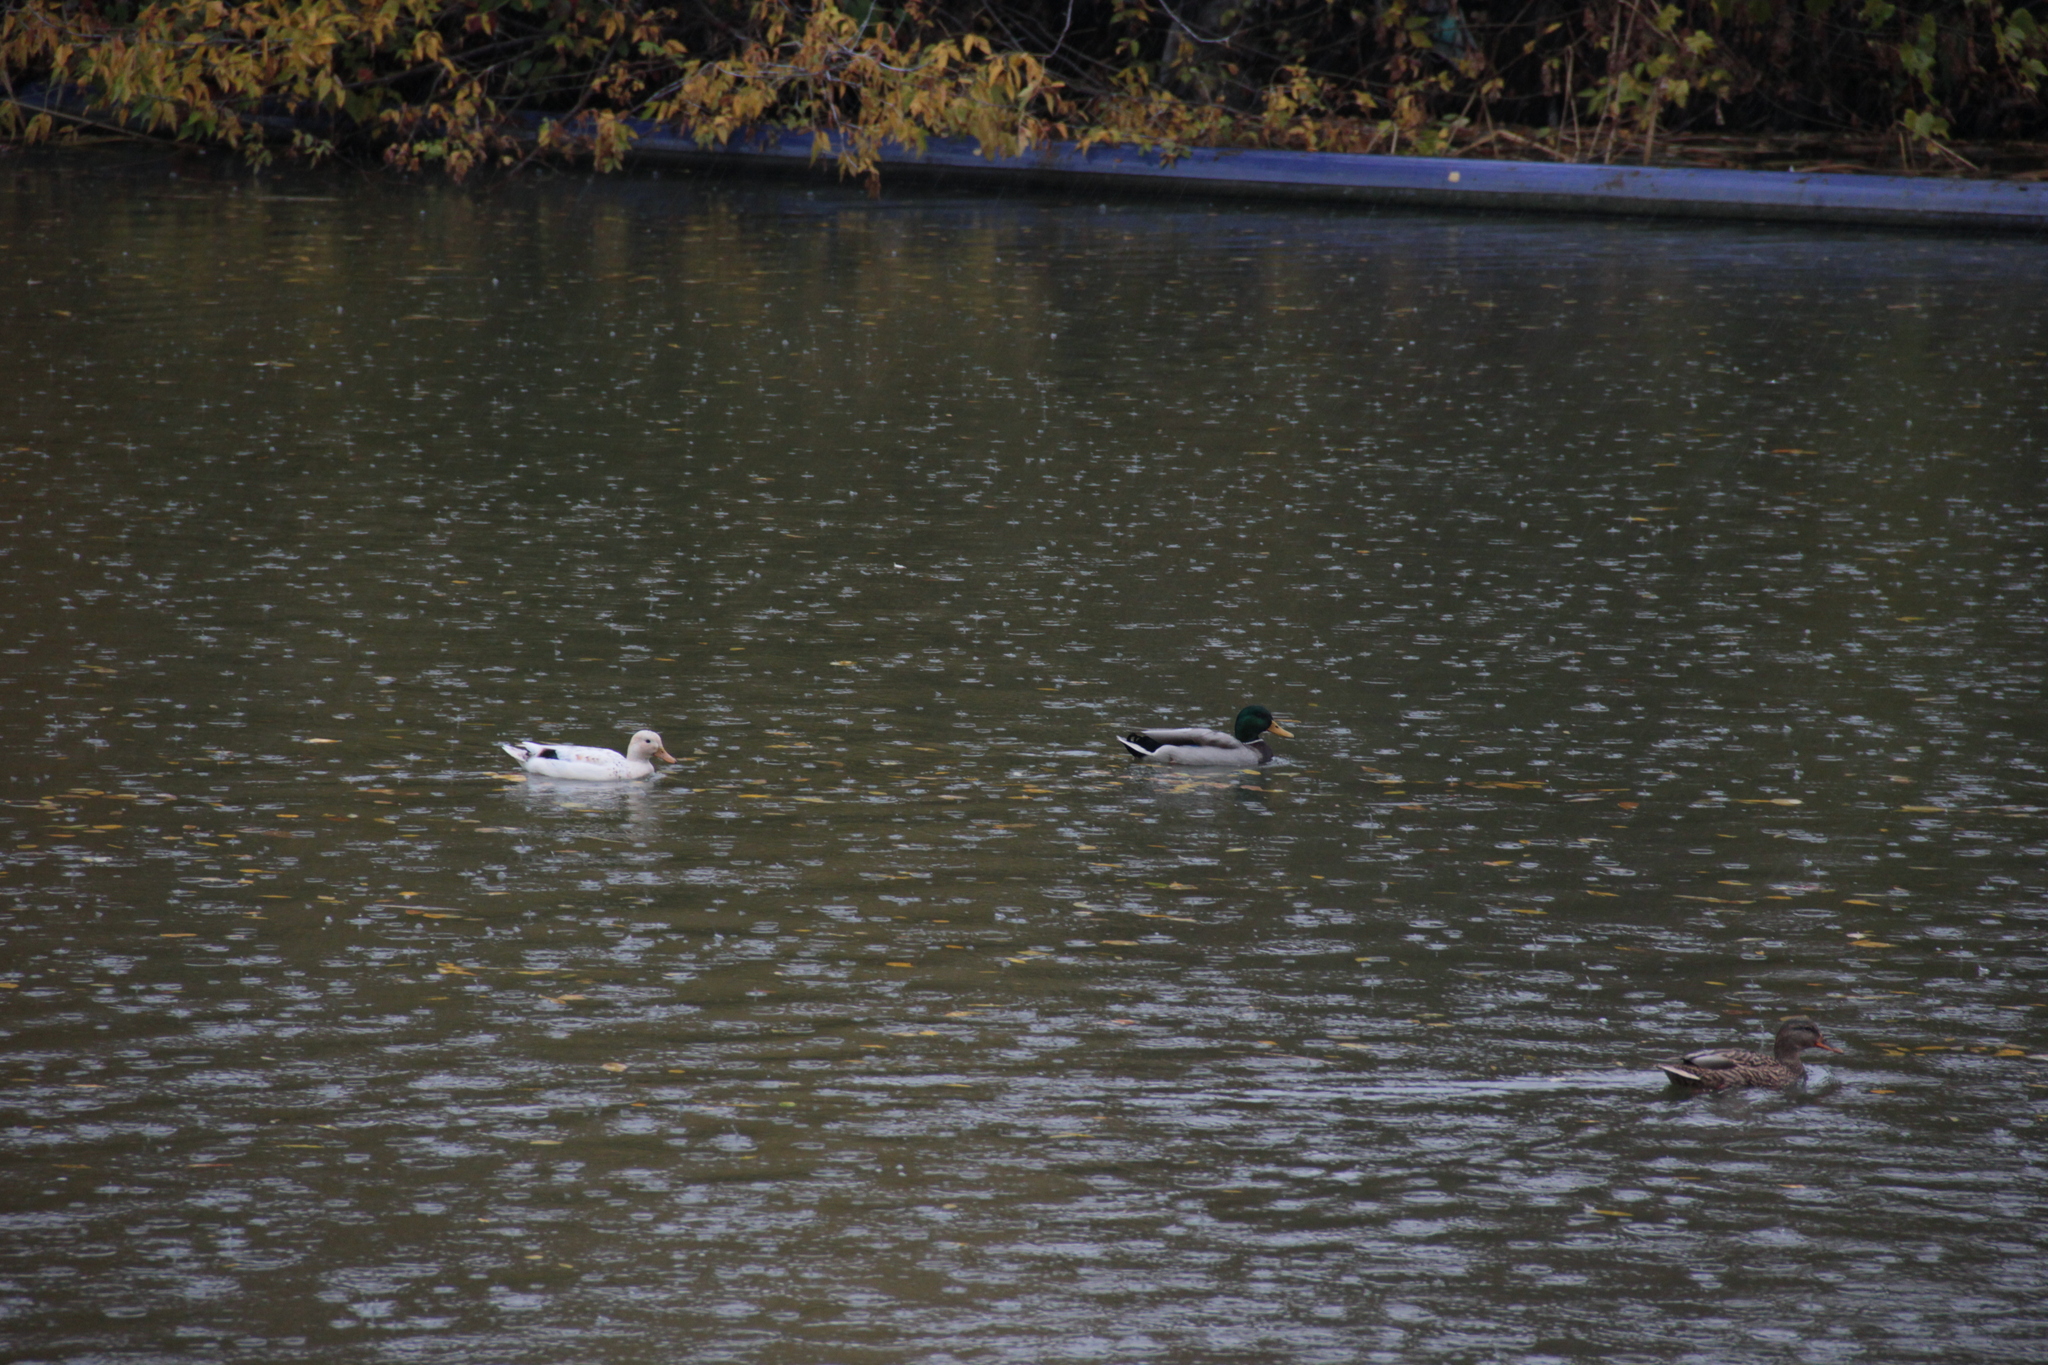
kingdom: Animalia
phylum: Chordata
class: Aves
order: Anseriformes
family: Anatidae
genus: Anas
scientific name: Anas platyrhynchos
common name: Mallard
